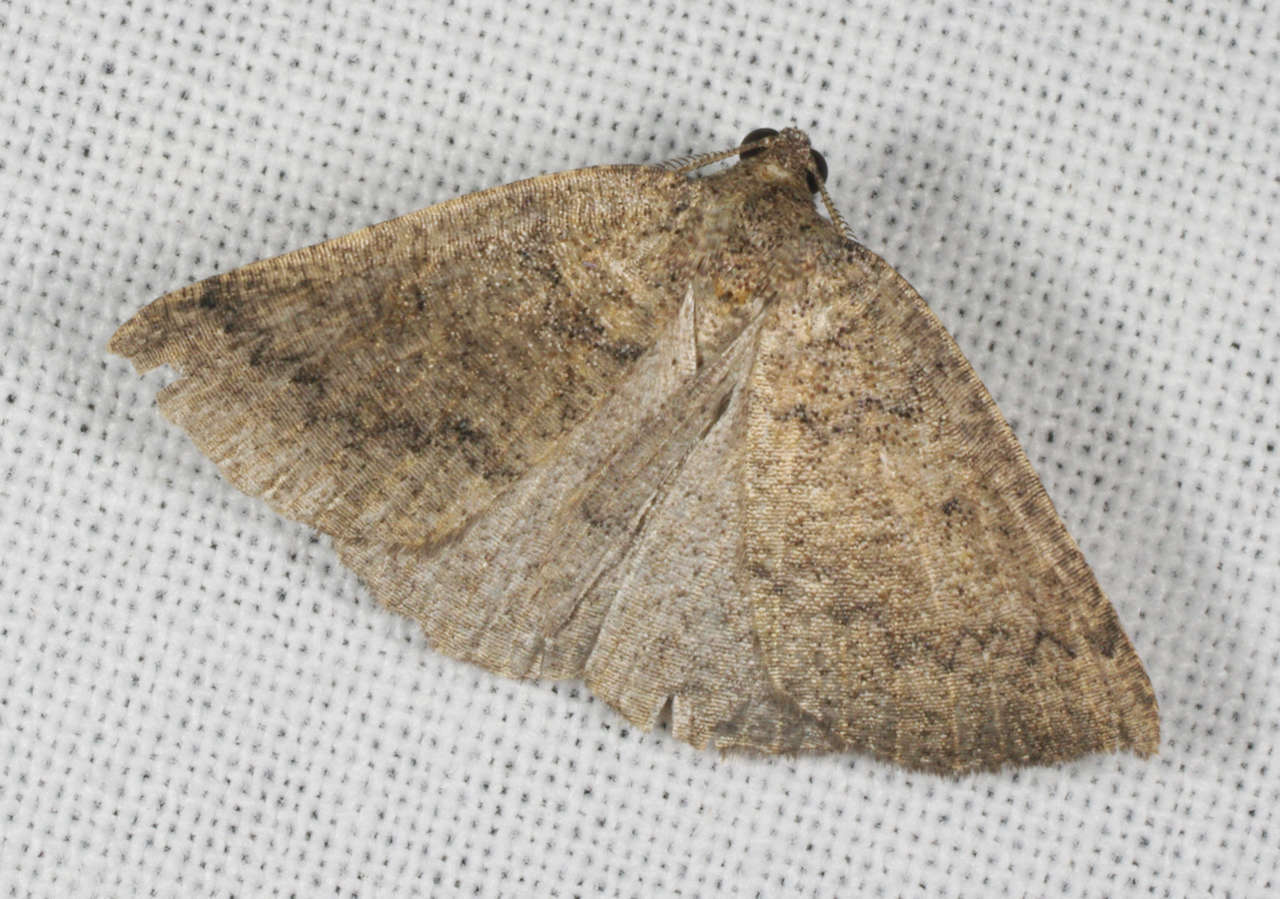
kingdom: Animalia
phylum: Arthropoda
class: Insecta
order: Lepidoptera
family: Geometridae
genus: Furcatrox
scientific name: Furcatrox furneauxi
